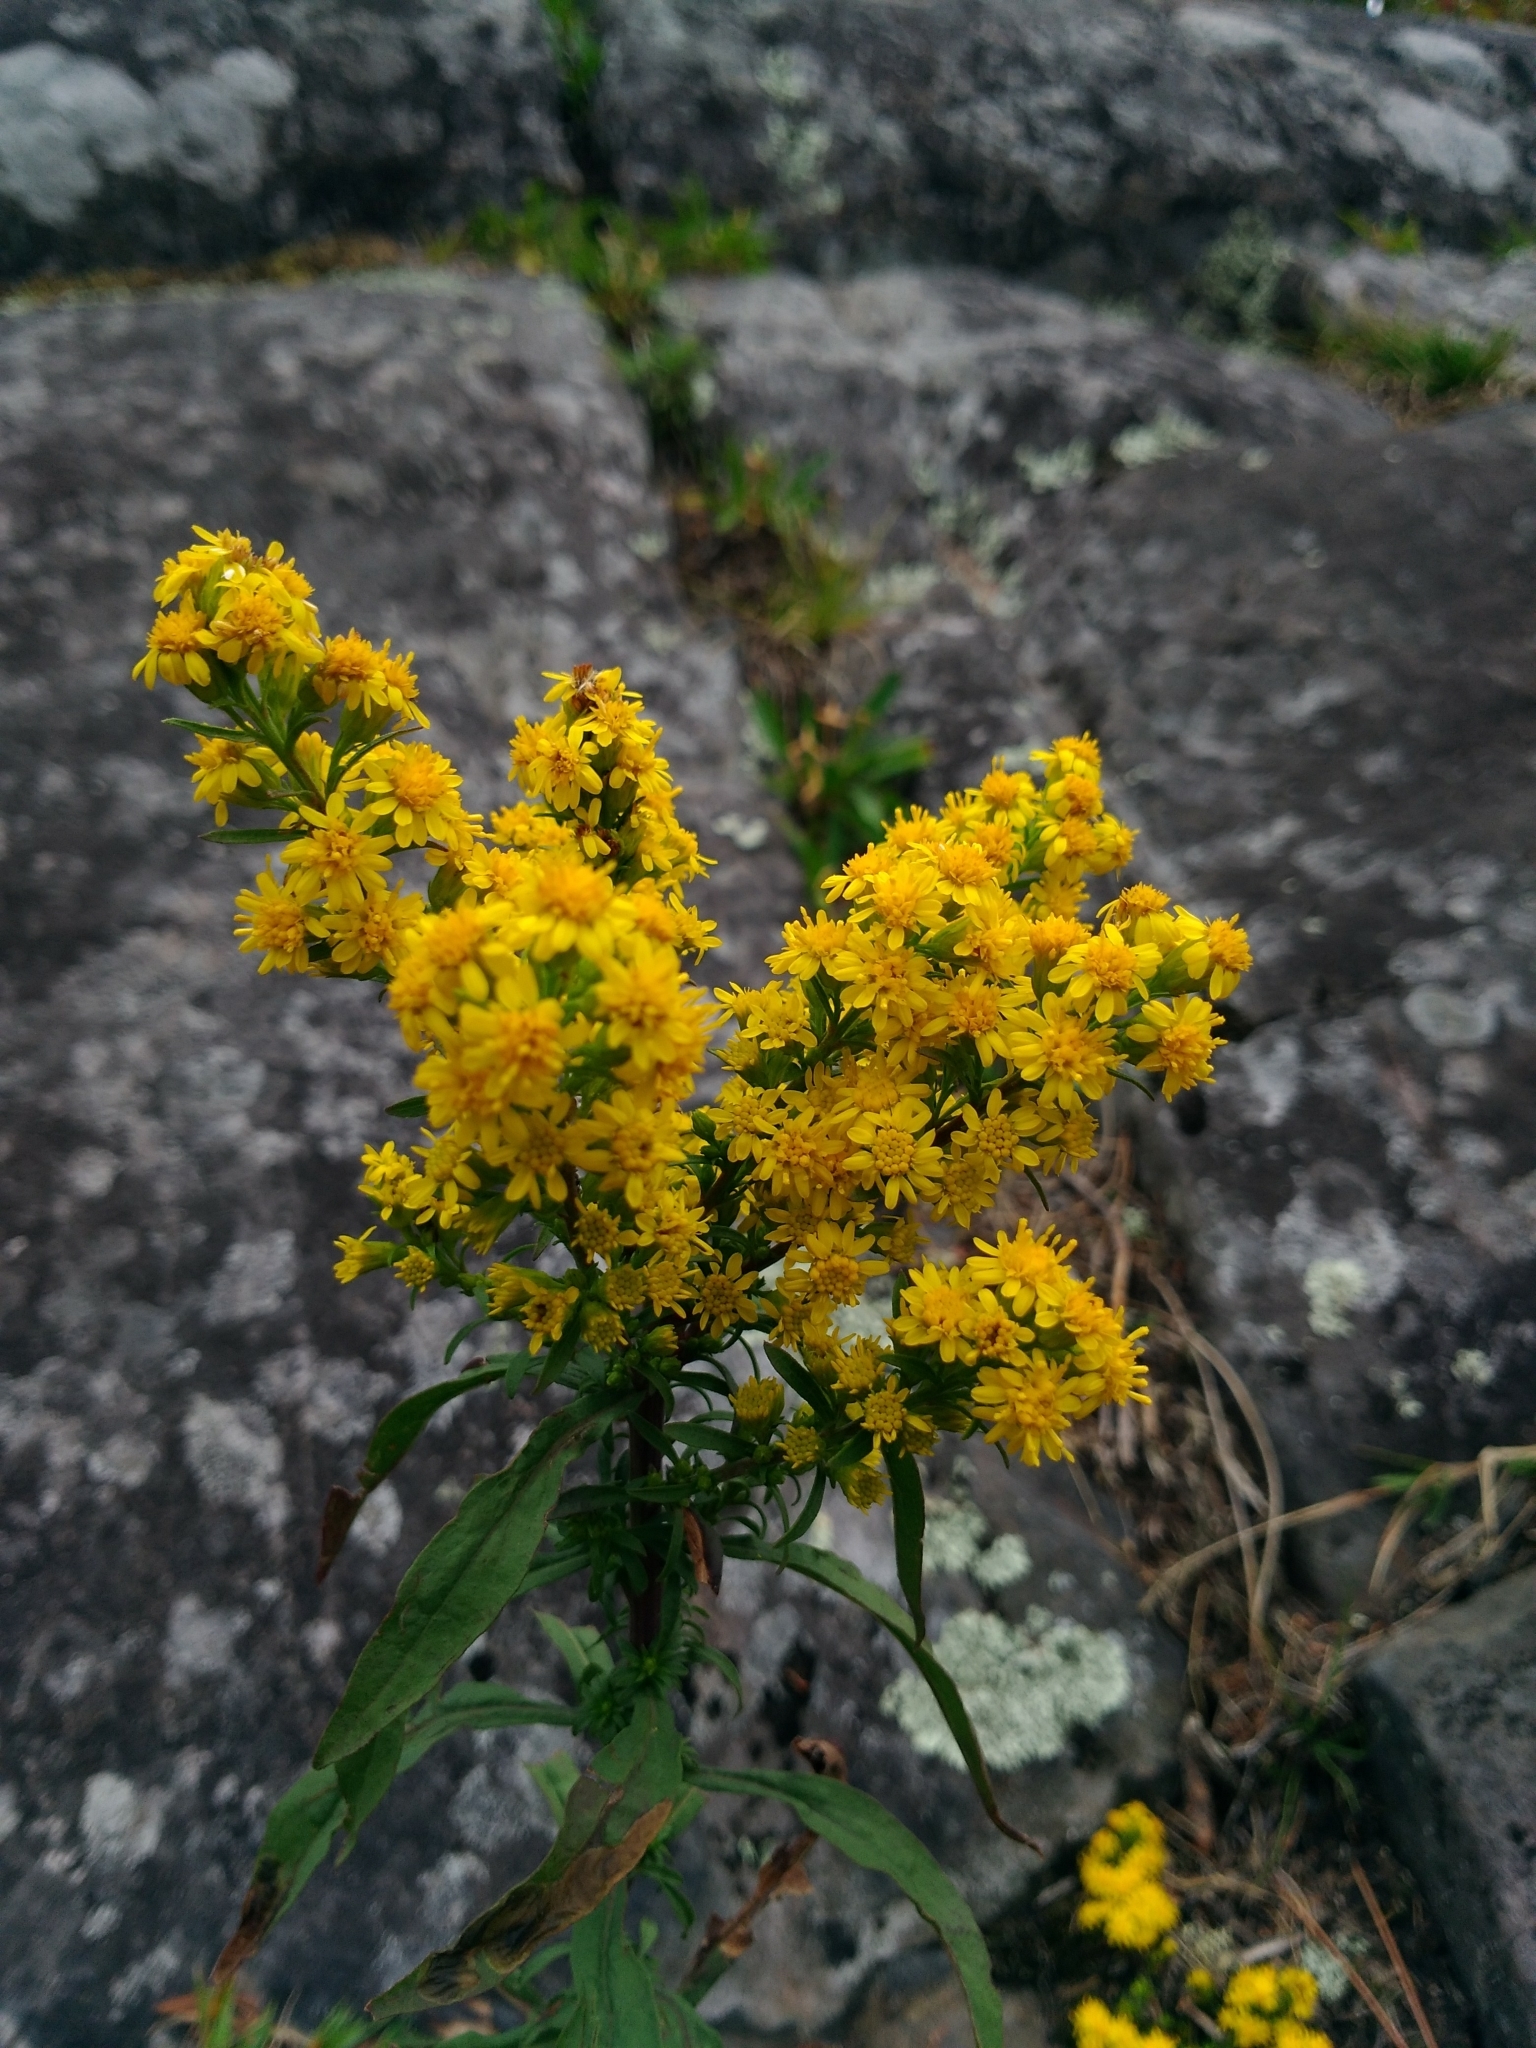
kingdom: Plantae
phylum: Tracheophyta
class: Magnoliopsida
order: Asterales
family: Asteraceae
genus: Solidago
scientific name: Solidago puberula
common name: Downy goldenrod
